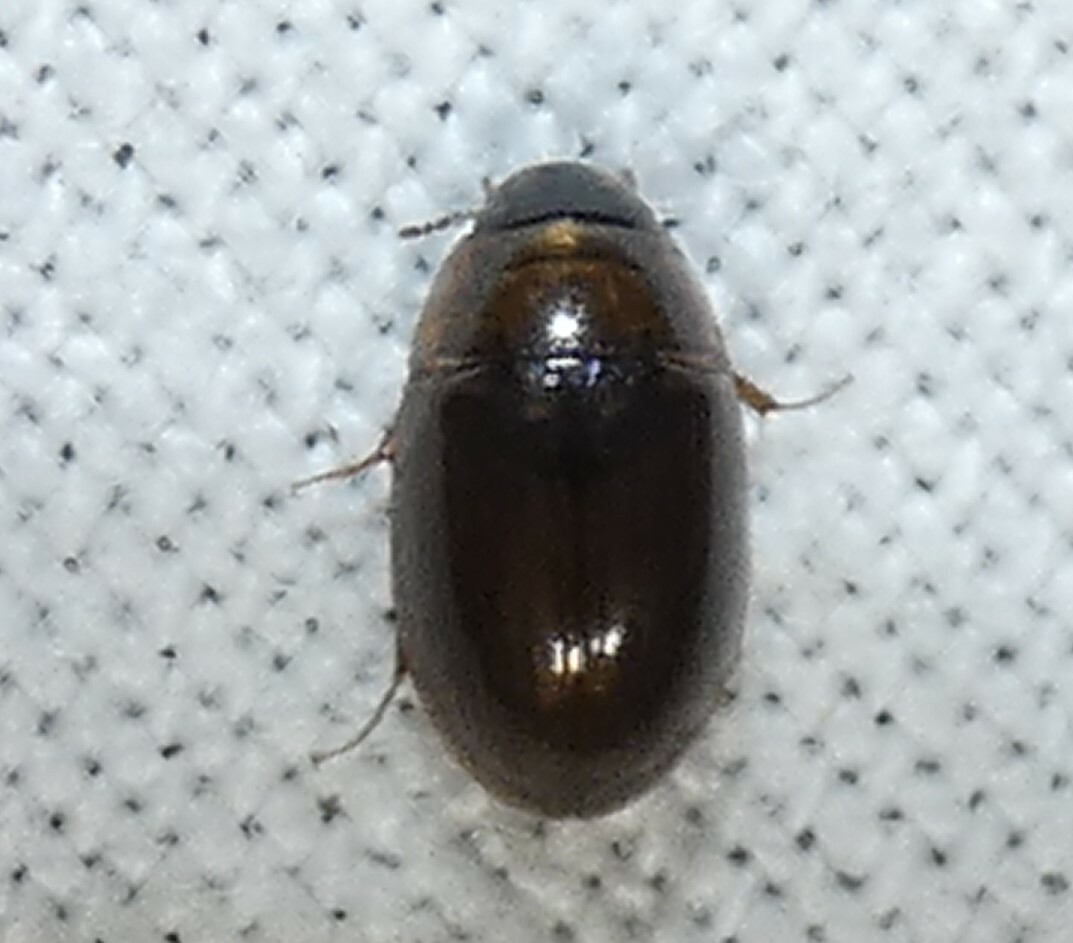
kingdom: Animalia
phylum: Arthropoda
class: Insecta
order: Coleoptera
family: Hydrophilidae
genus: Enochrus
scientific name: Enochrus
